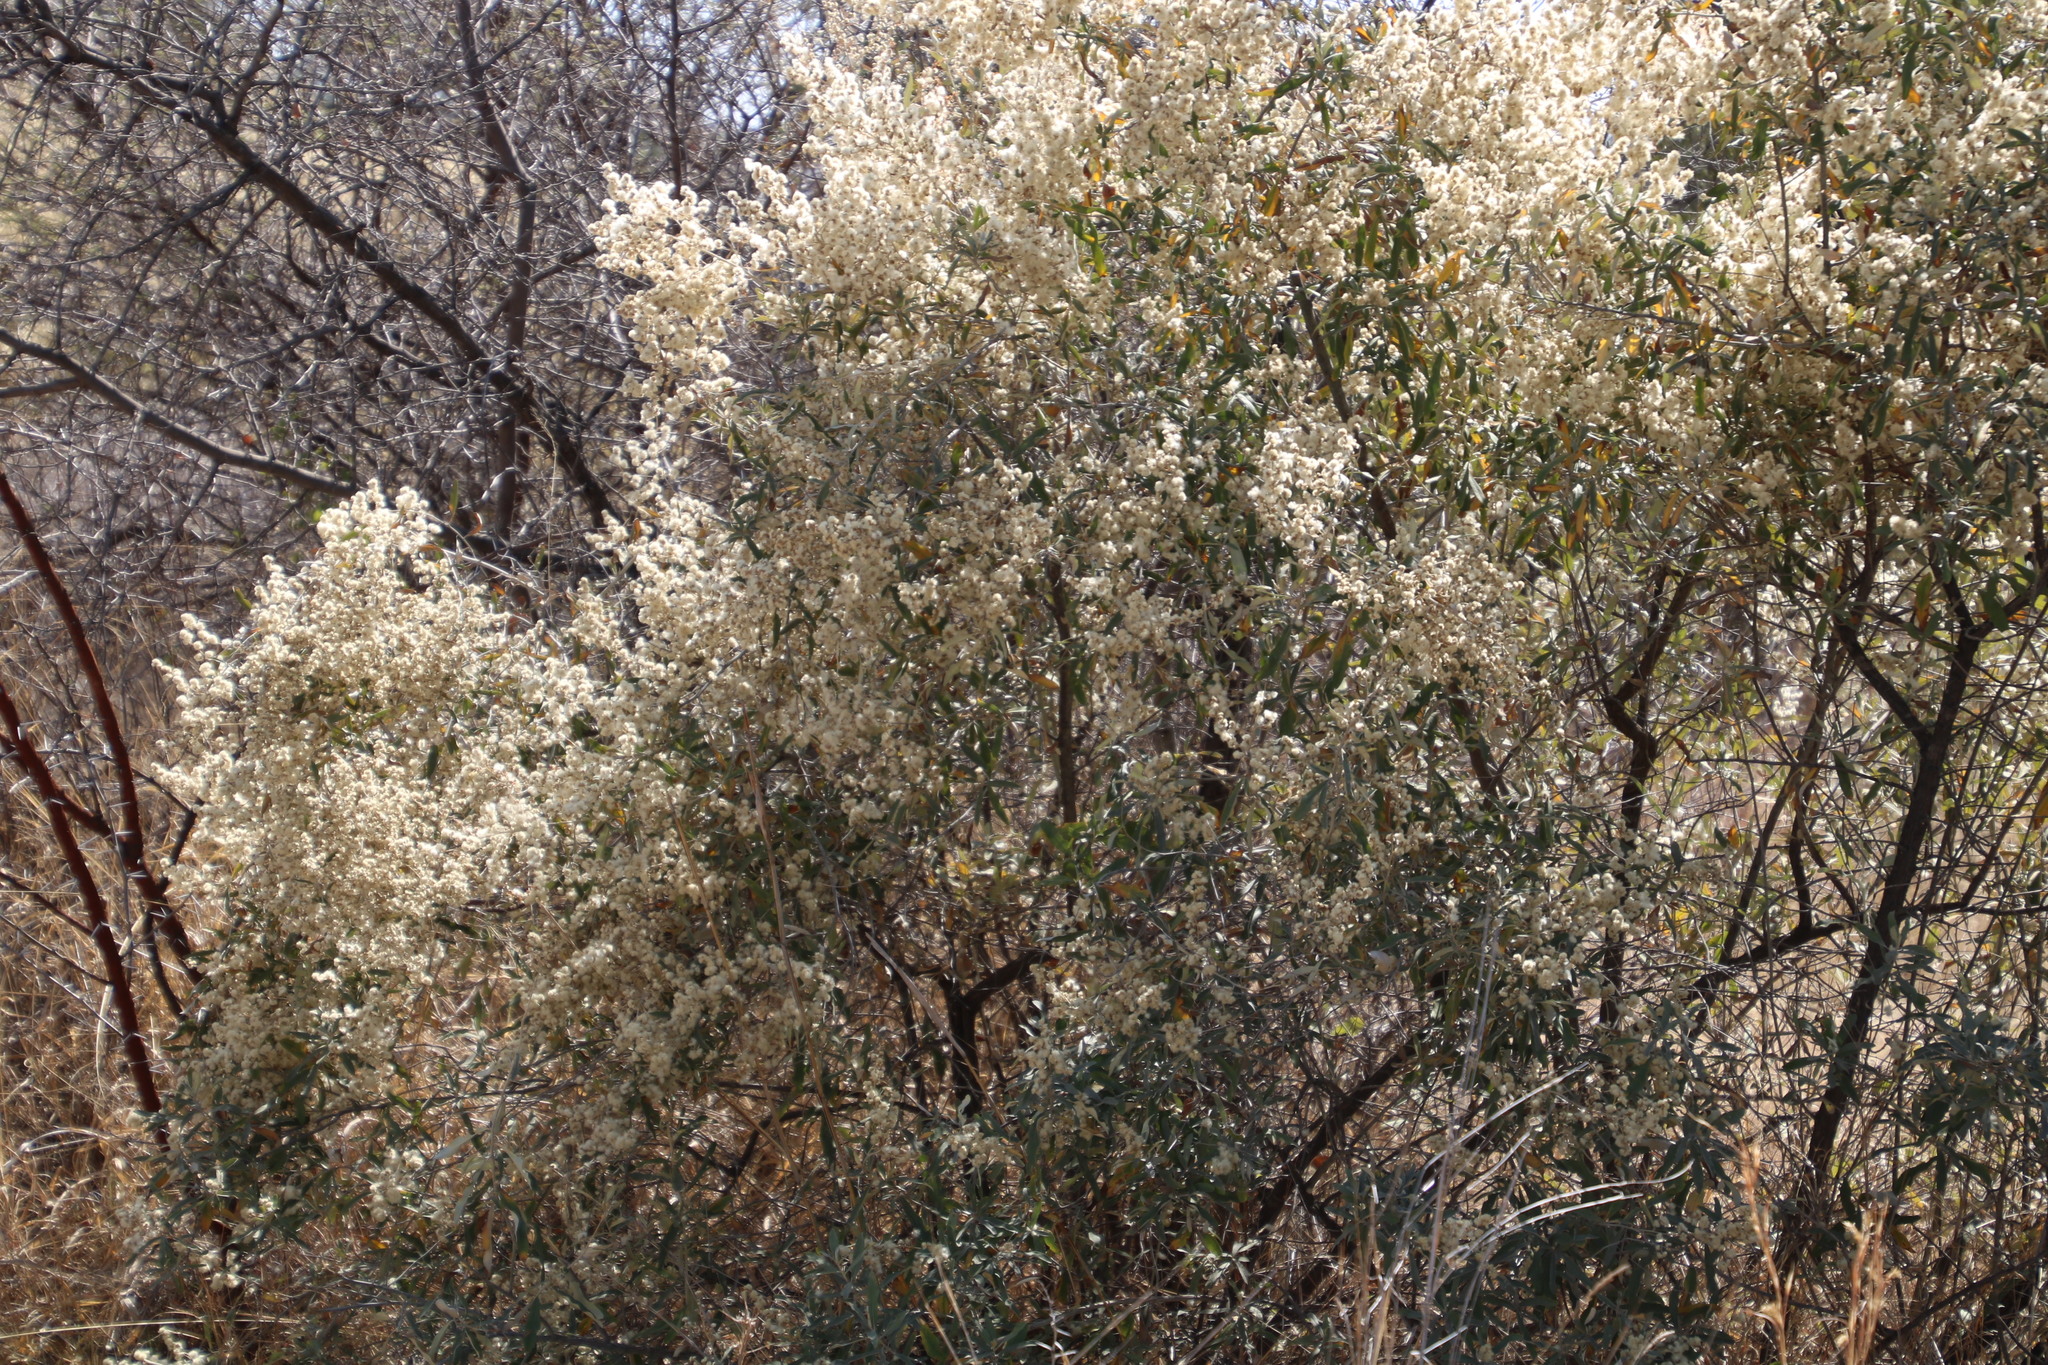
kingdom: Plantae
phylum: Tracheophyta
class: Magnoliopsida
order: Asterales
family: Asteraceae
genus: Tarchonanthus
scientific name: Tarchonanthus camphoratus
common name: Camphorwood
